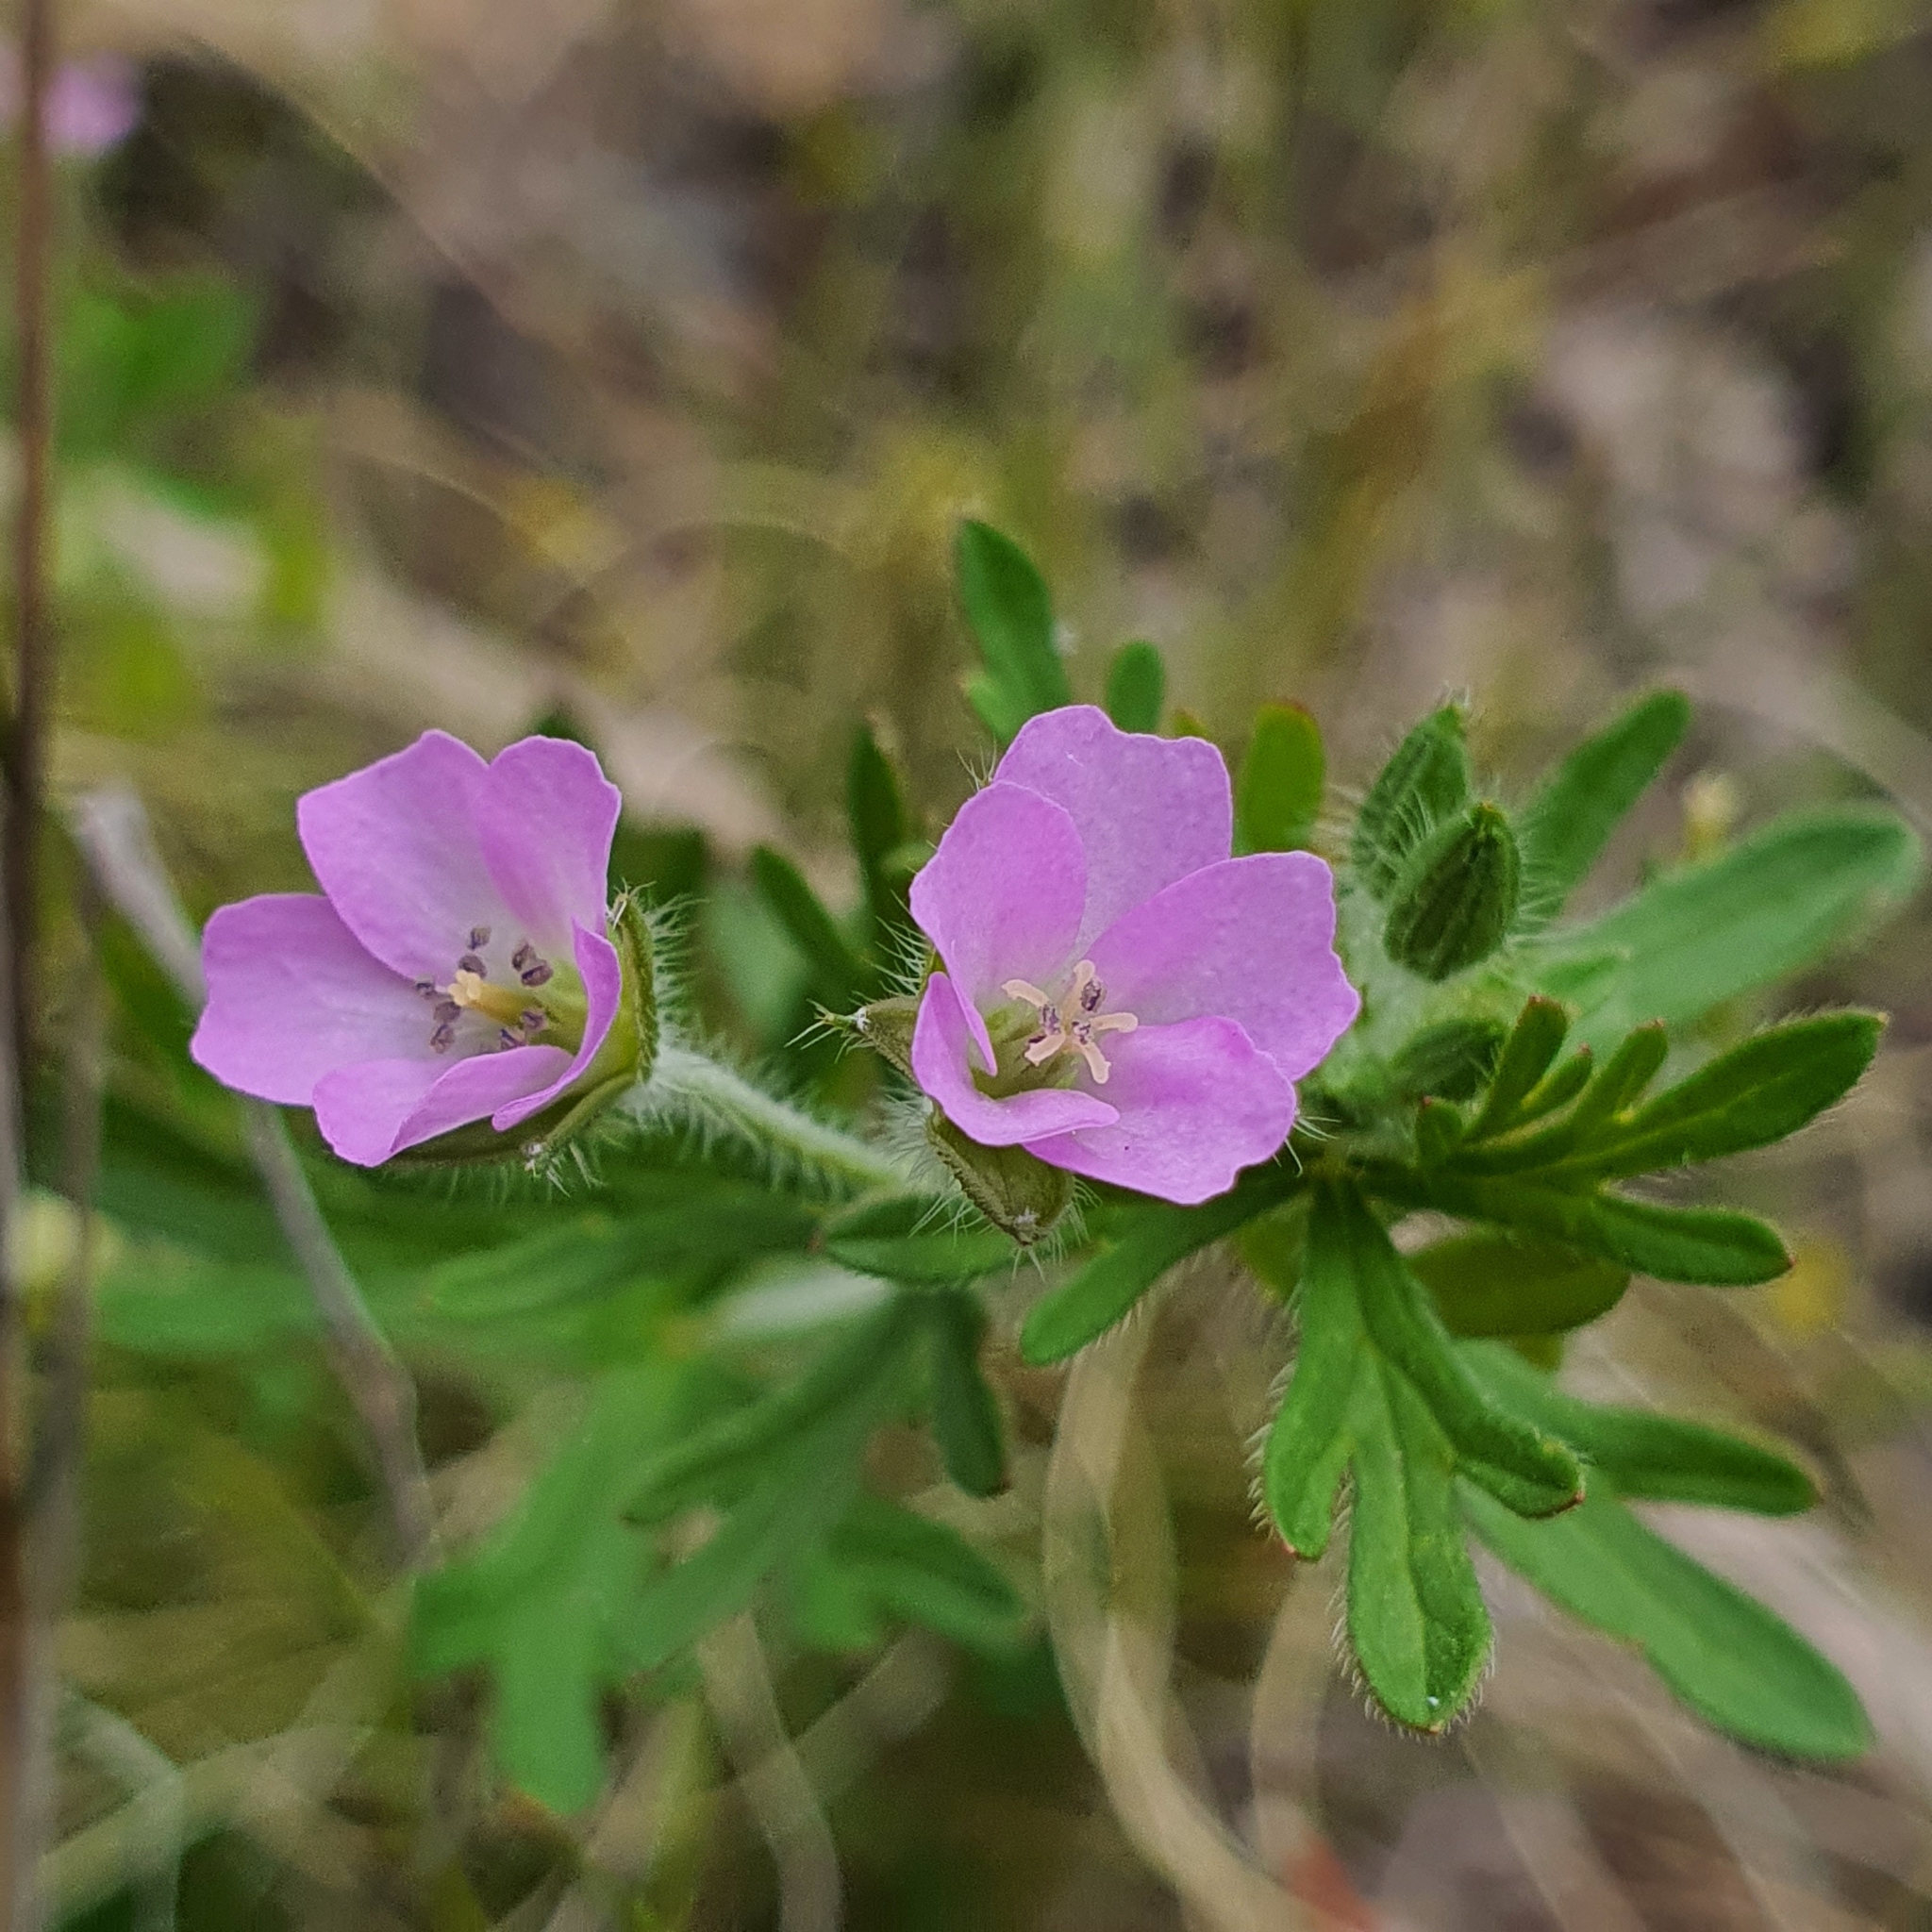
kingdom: Plantae
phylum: Tracheophyta
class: Magnoliopsida
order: Geraniales
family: Geraniaceae
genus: Geranium
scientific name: Geranium solanderi
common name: Solander's geranium
